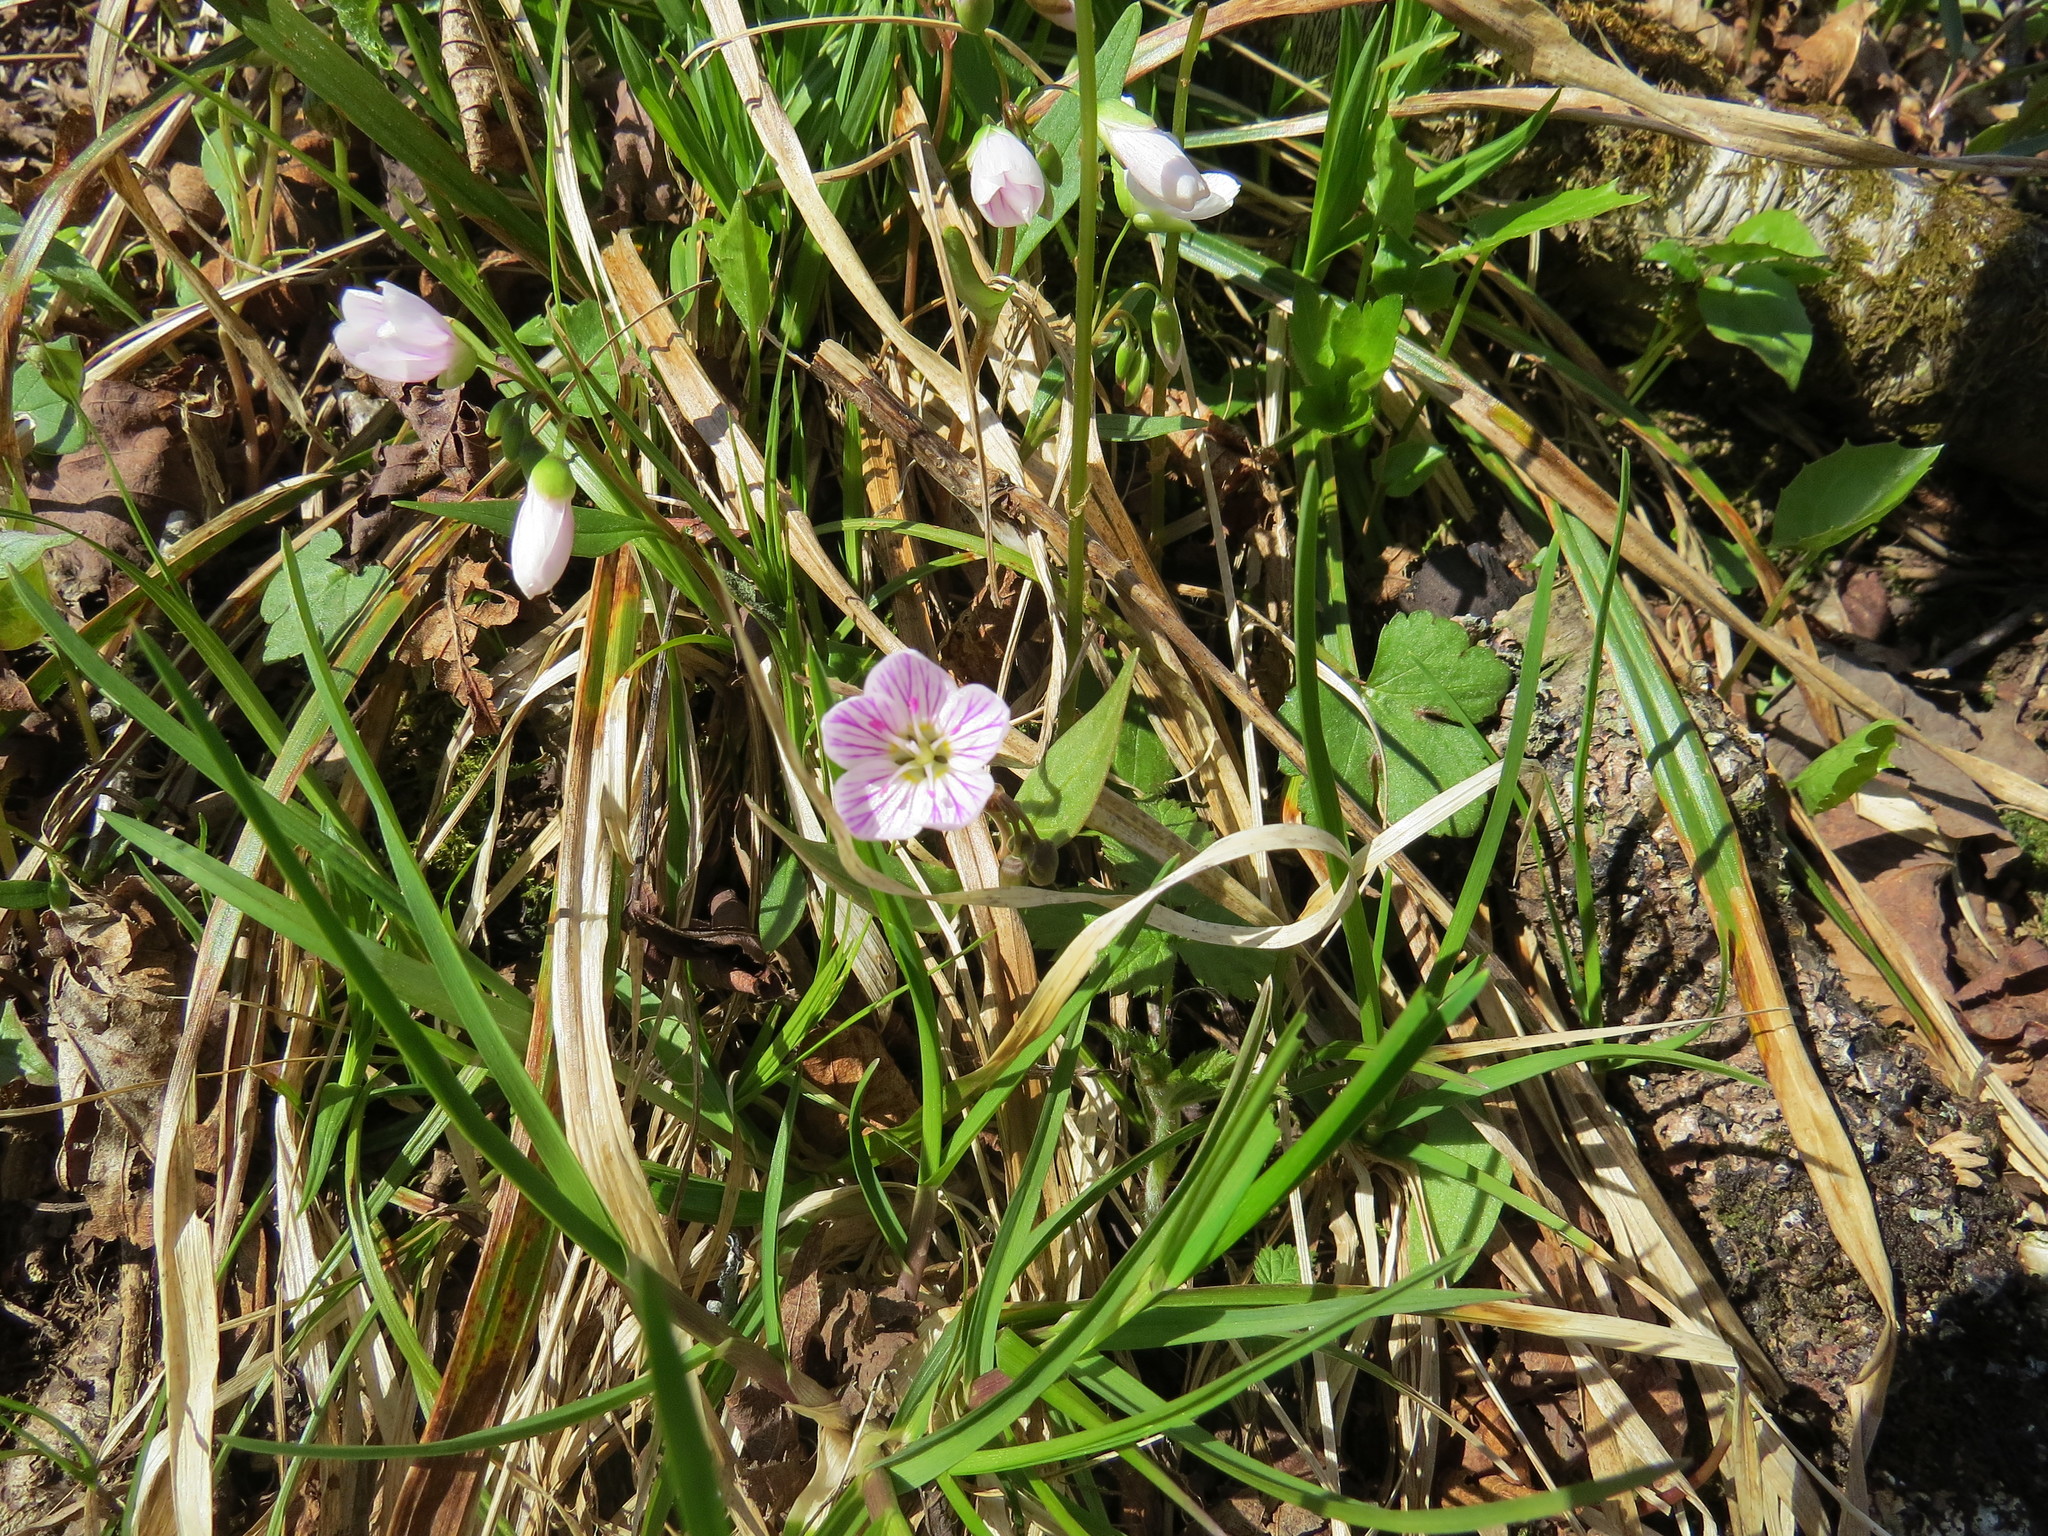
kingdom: Plantae
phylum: Tracheophyta
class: Magnoliopsida
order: Caryophyllales
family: Montiaceae
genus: Claytonia
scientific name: Claytonia caroliniana
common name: Carolina spring beauty
